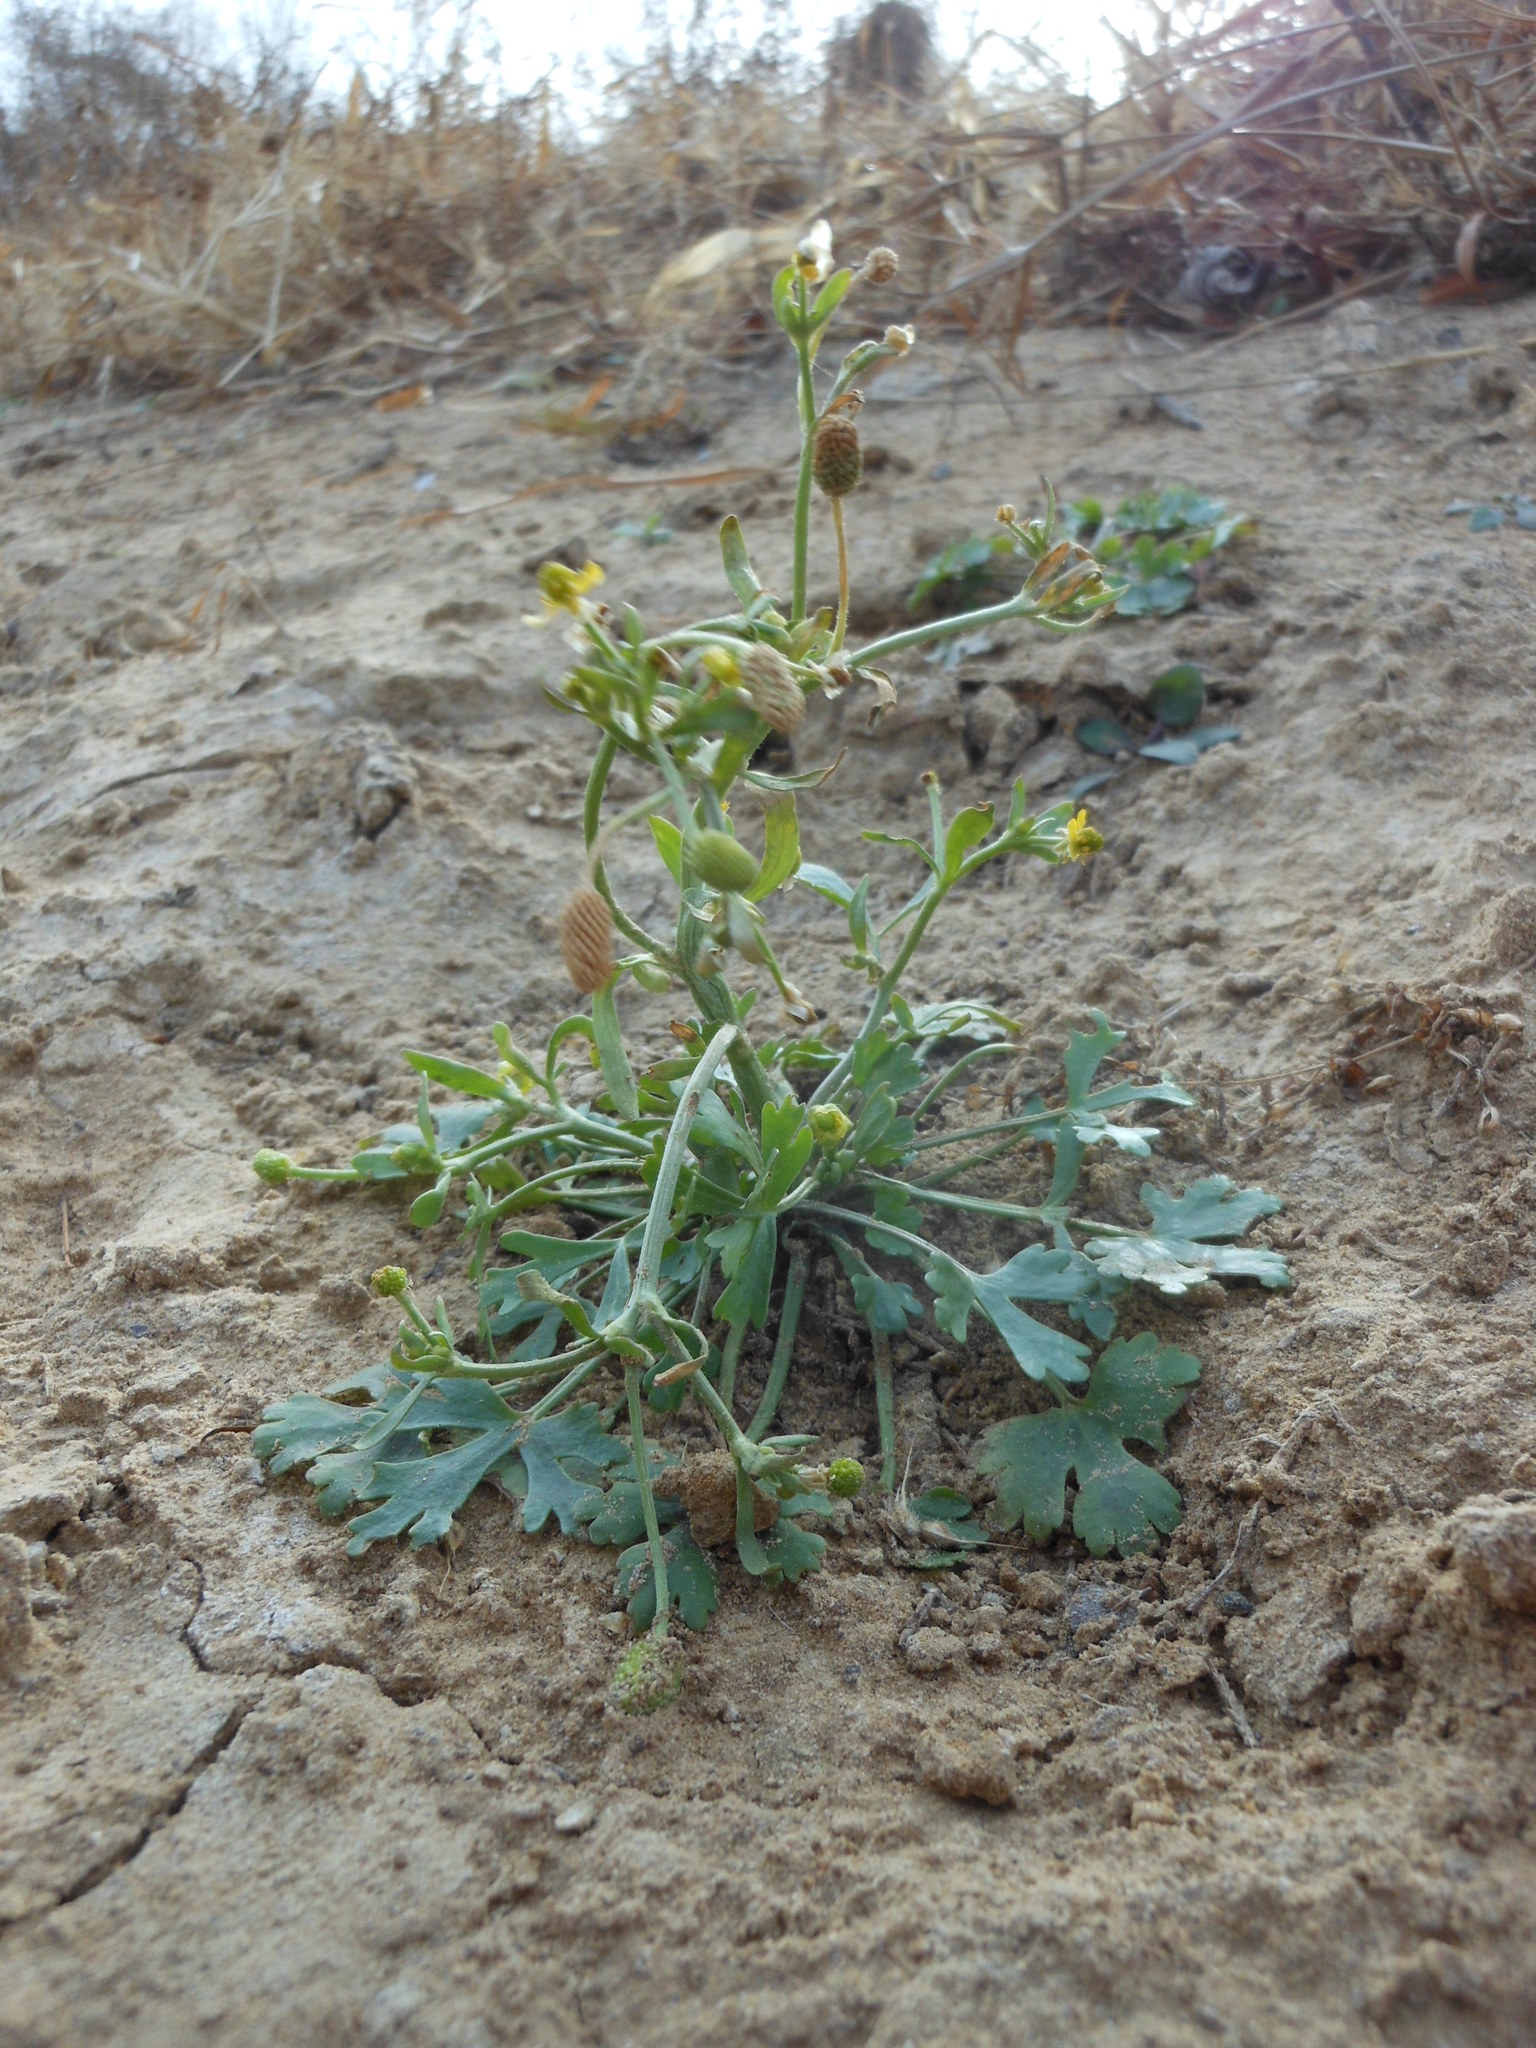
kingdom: Plantae
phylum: Tracheophyta
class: Magnoliopsida
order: Ranunculales
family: Ranunculaceae
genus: Ranunculus
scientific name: Ranunculus sceleratus
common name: Celery-leaved buttercup
